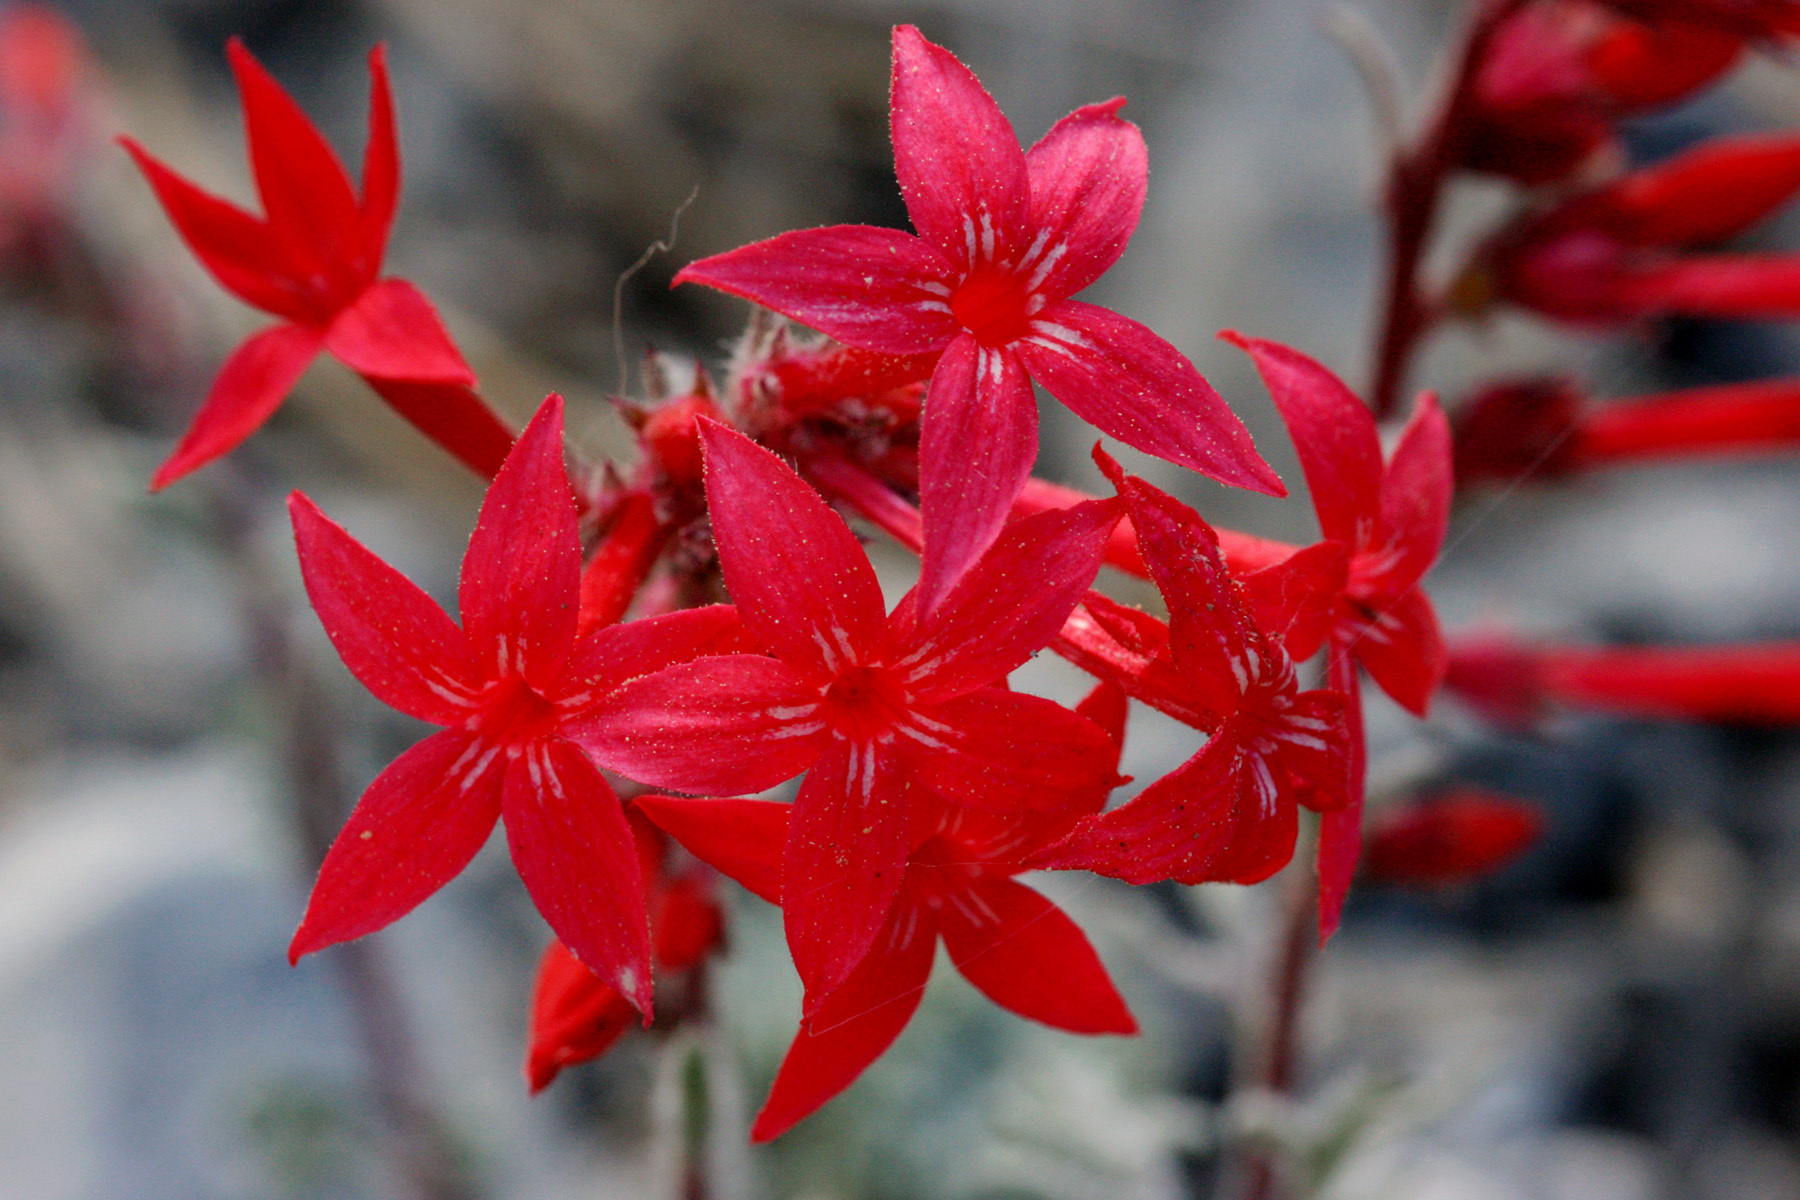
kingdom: Plantae
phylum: Tracheophyta
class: Magnoliopsida
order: Ericales
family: Polemoniaceae
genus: Ipomopsis
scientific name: Ipomopsis arizonica
